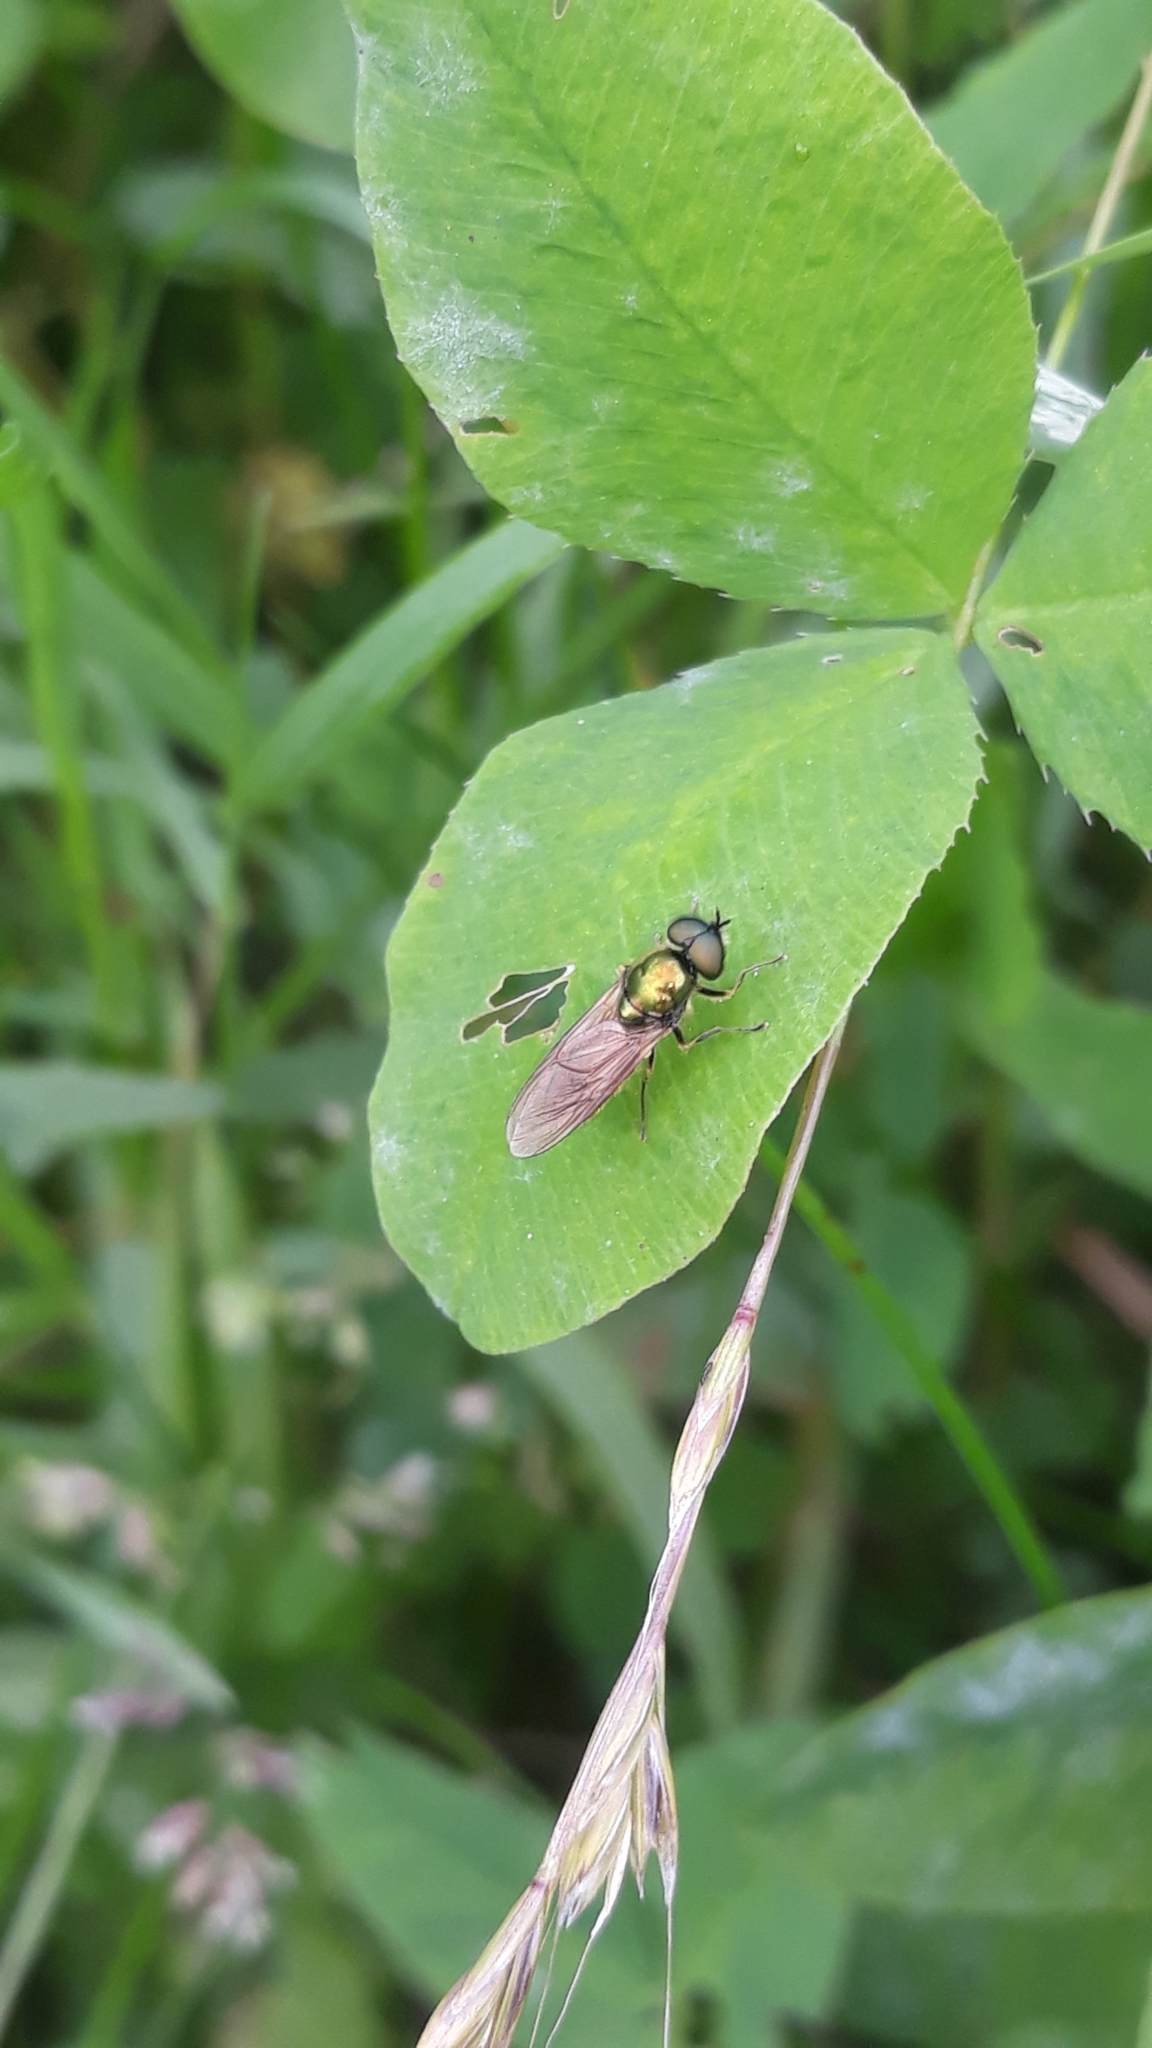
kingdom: Animalia
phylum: Arthropoda
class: Insecta
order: Diptera
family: Stratiomyidae
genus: Chloromyia
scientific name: Chloromyia formosa
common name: Soldier fly
